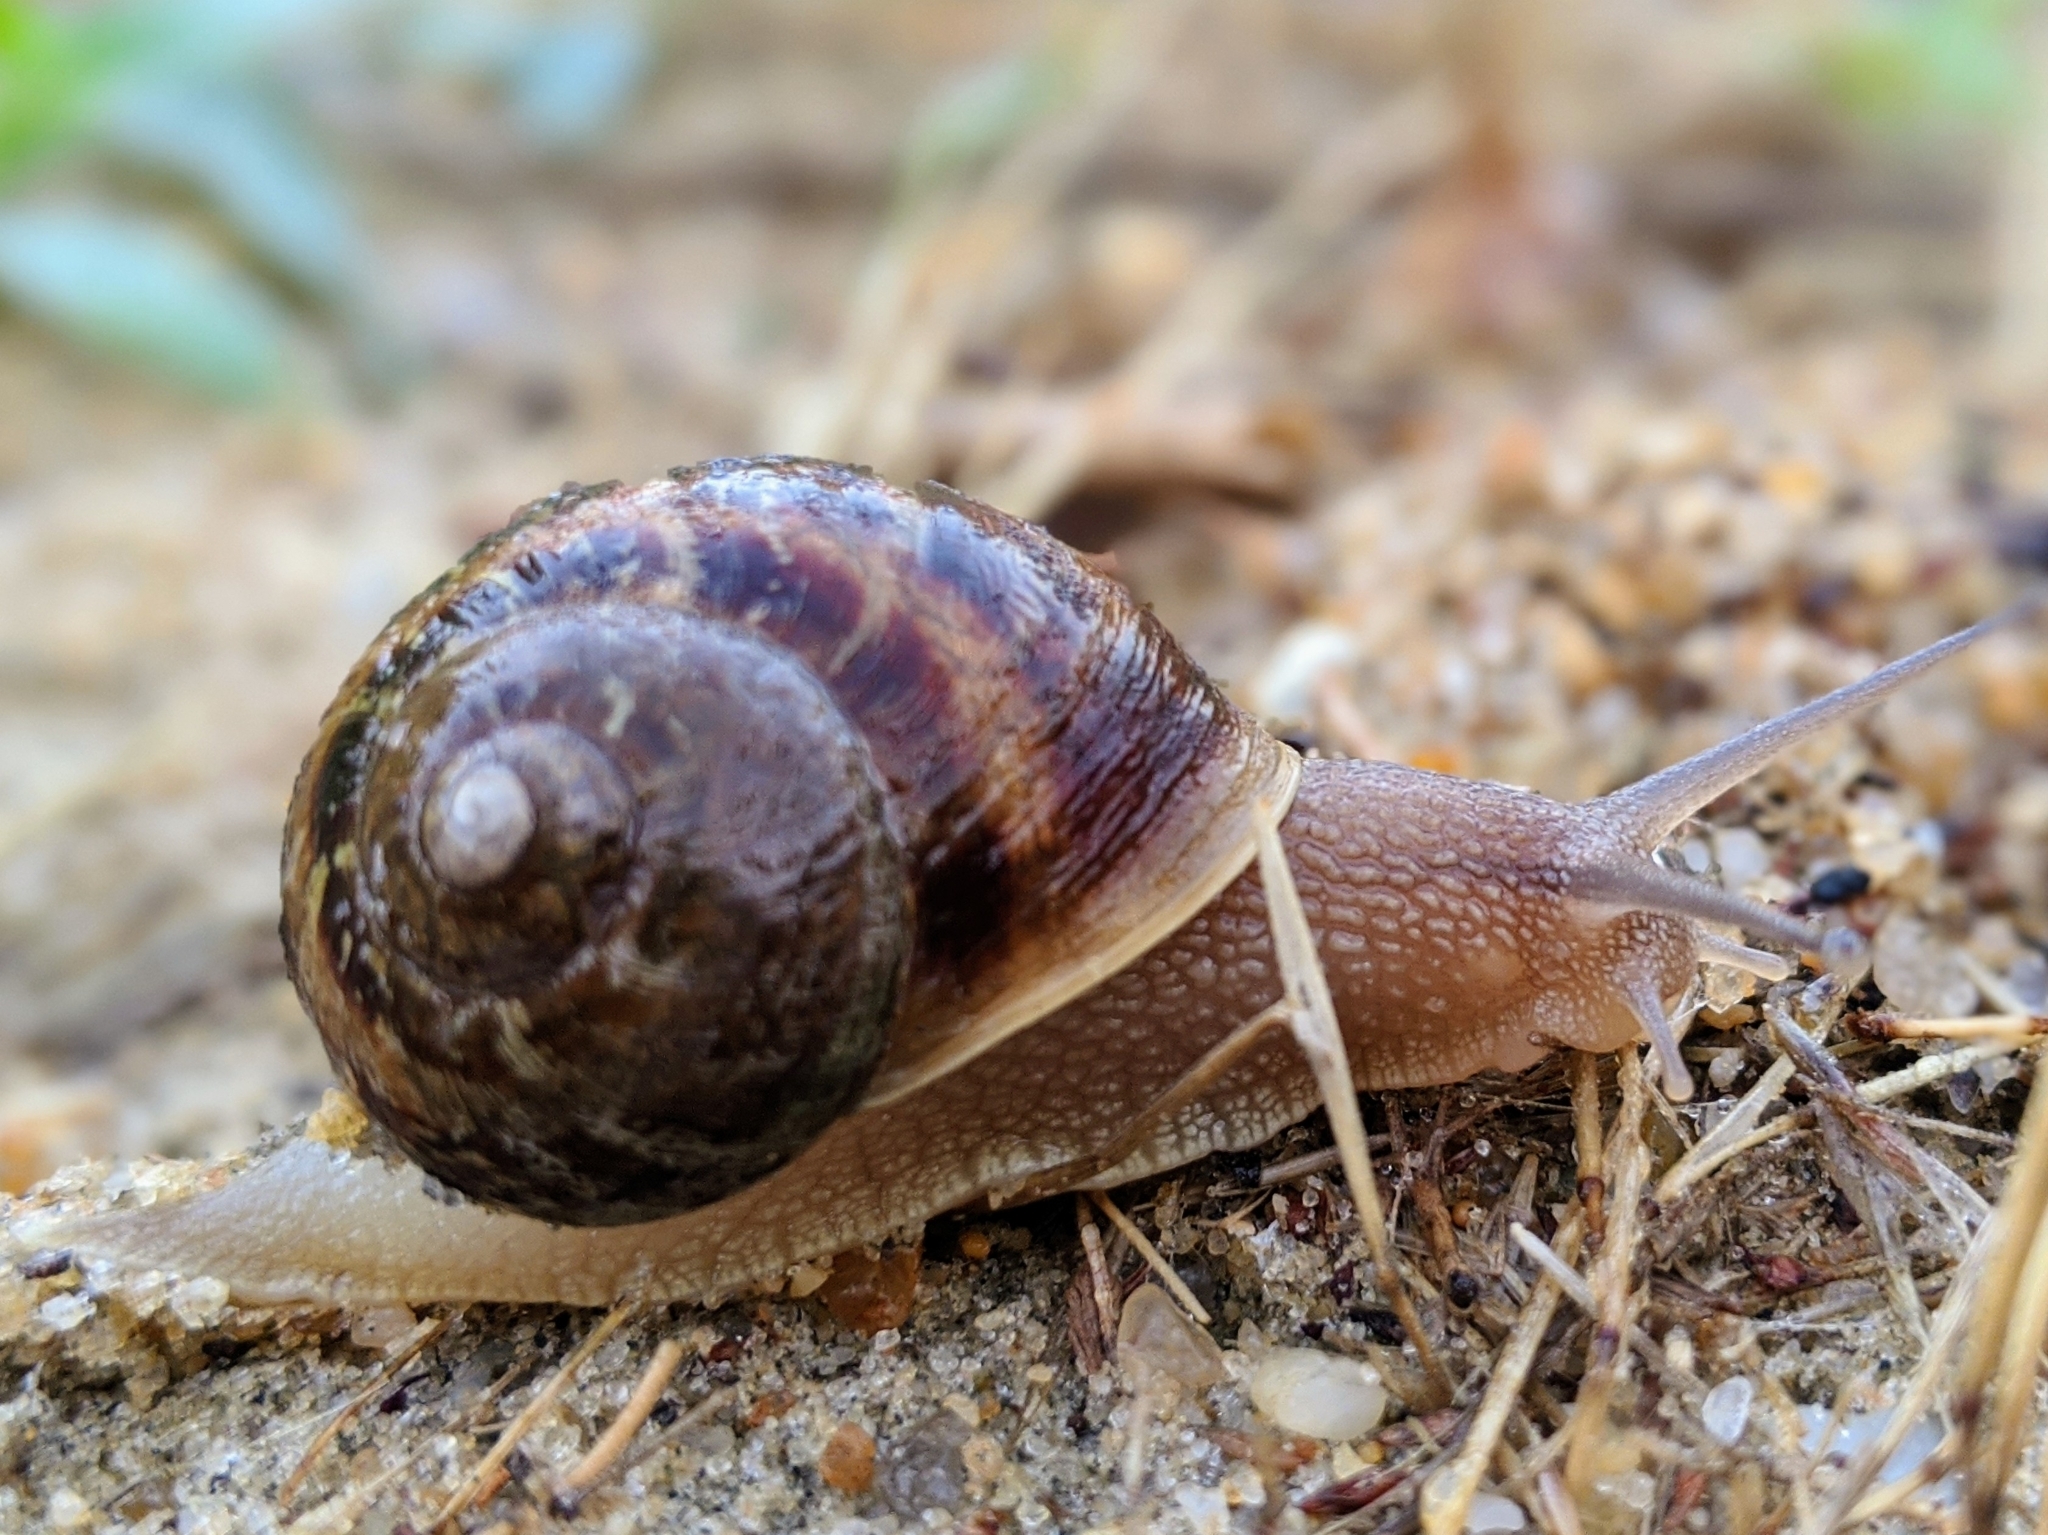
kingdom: Animalia
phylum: Mollusca
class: Gastropoda
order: Stylommatophora
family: Helicidae
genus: Cornu
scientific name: Cornu aspersum
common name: Brown garden snail
